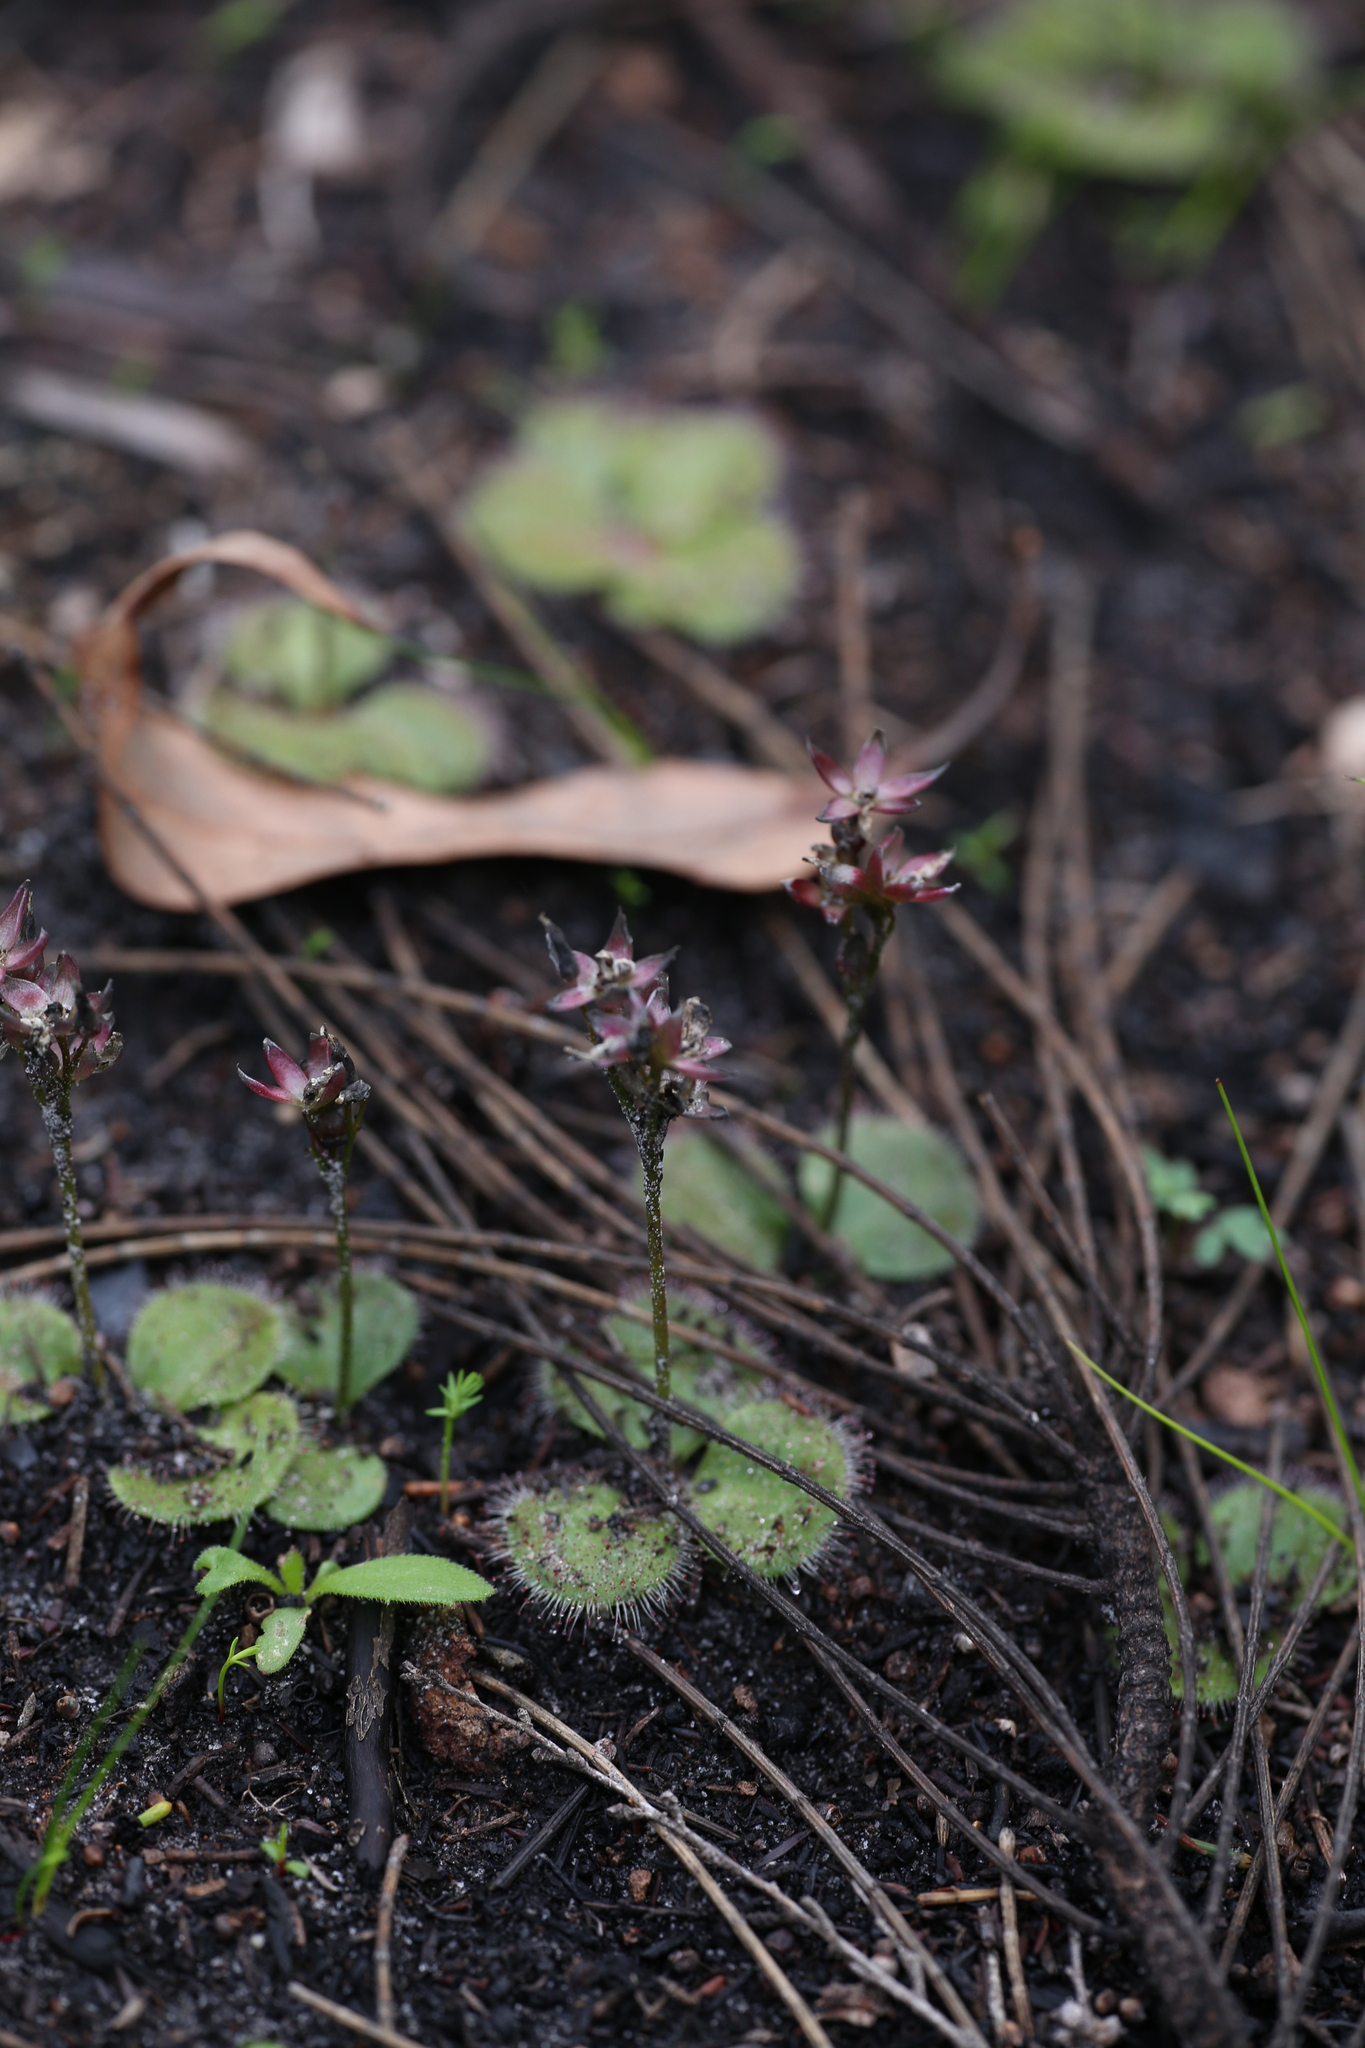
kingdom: Plantae
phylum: Tracheophyta
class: Magnoliopsida
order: Caryophyllales
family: Droseraceae
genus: Drosera
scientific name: Drosera erythrorhiza
